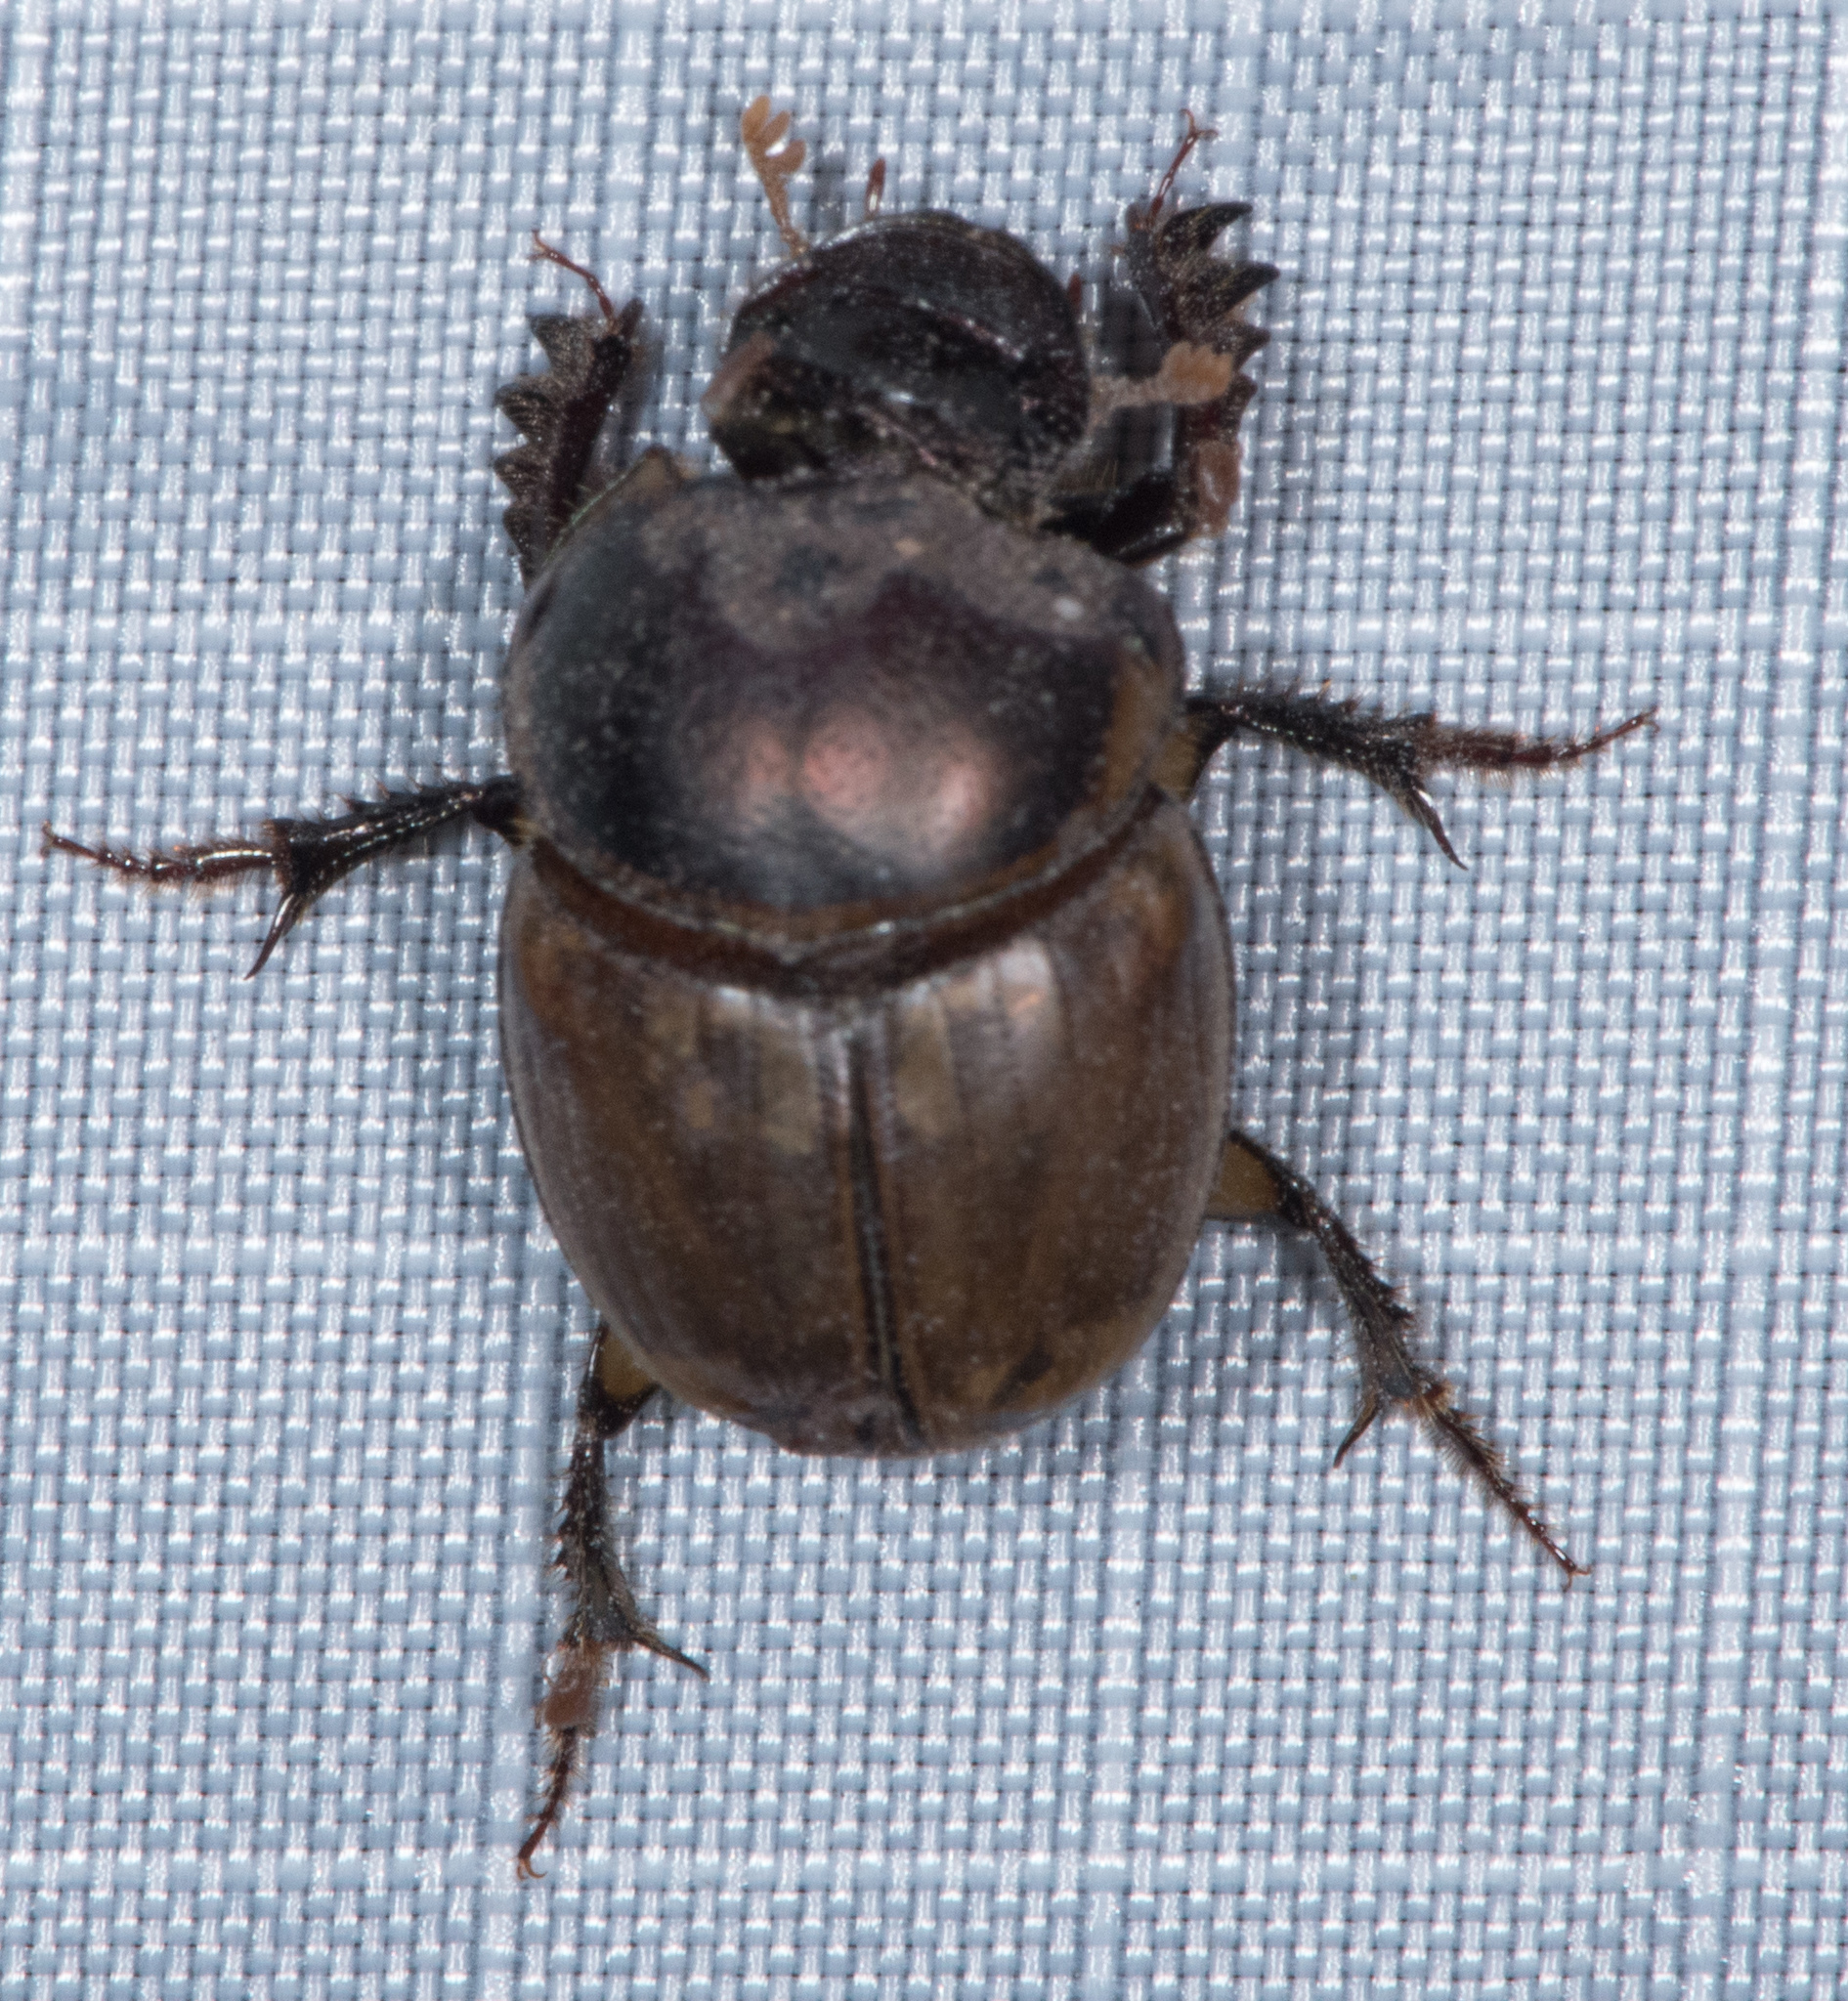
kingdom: Animalia
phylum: Arthropoda
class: Insecta
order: Coleoptera
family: Scarabaeidae
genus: Digitonthophagus
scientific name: Digitonthophagus gazella
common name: Brown dung beetle
